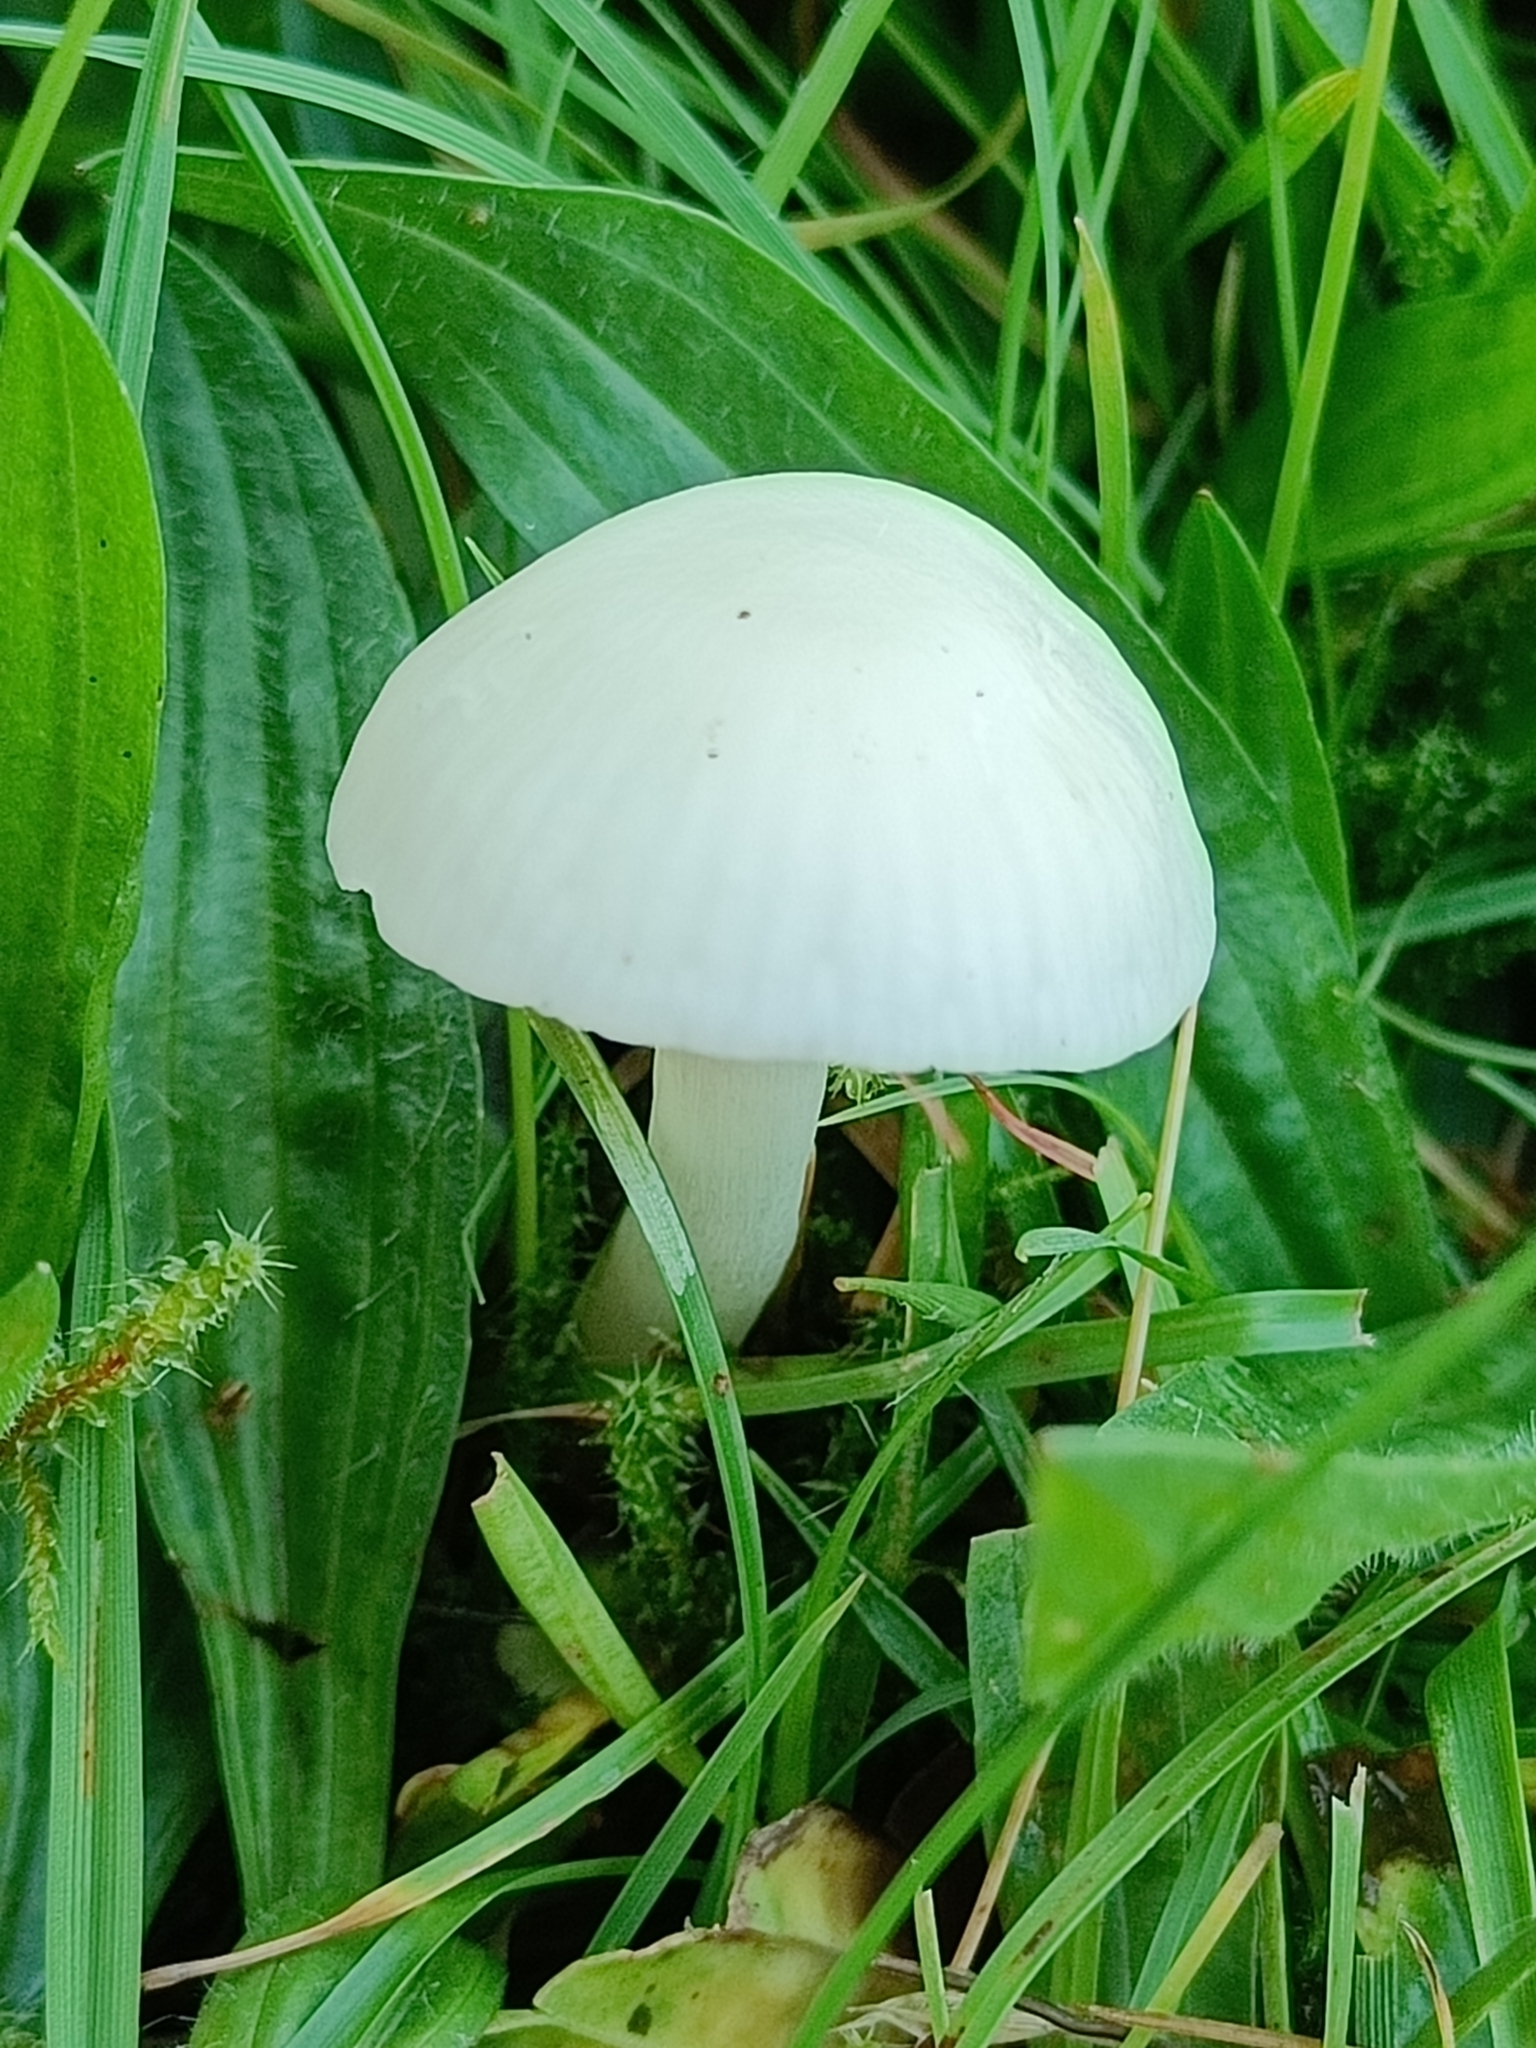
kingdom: Fungi
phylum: Basidiomycota
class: Agaricomycetes
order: Agaricales
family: Hygrophoraceae
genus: Cuphophyllus
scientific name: Cuphophyllus virgineus
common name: Snowy waxcap
